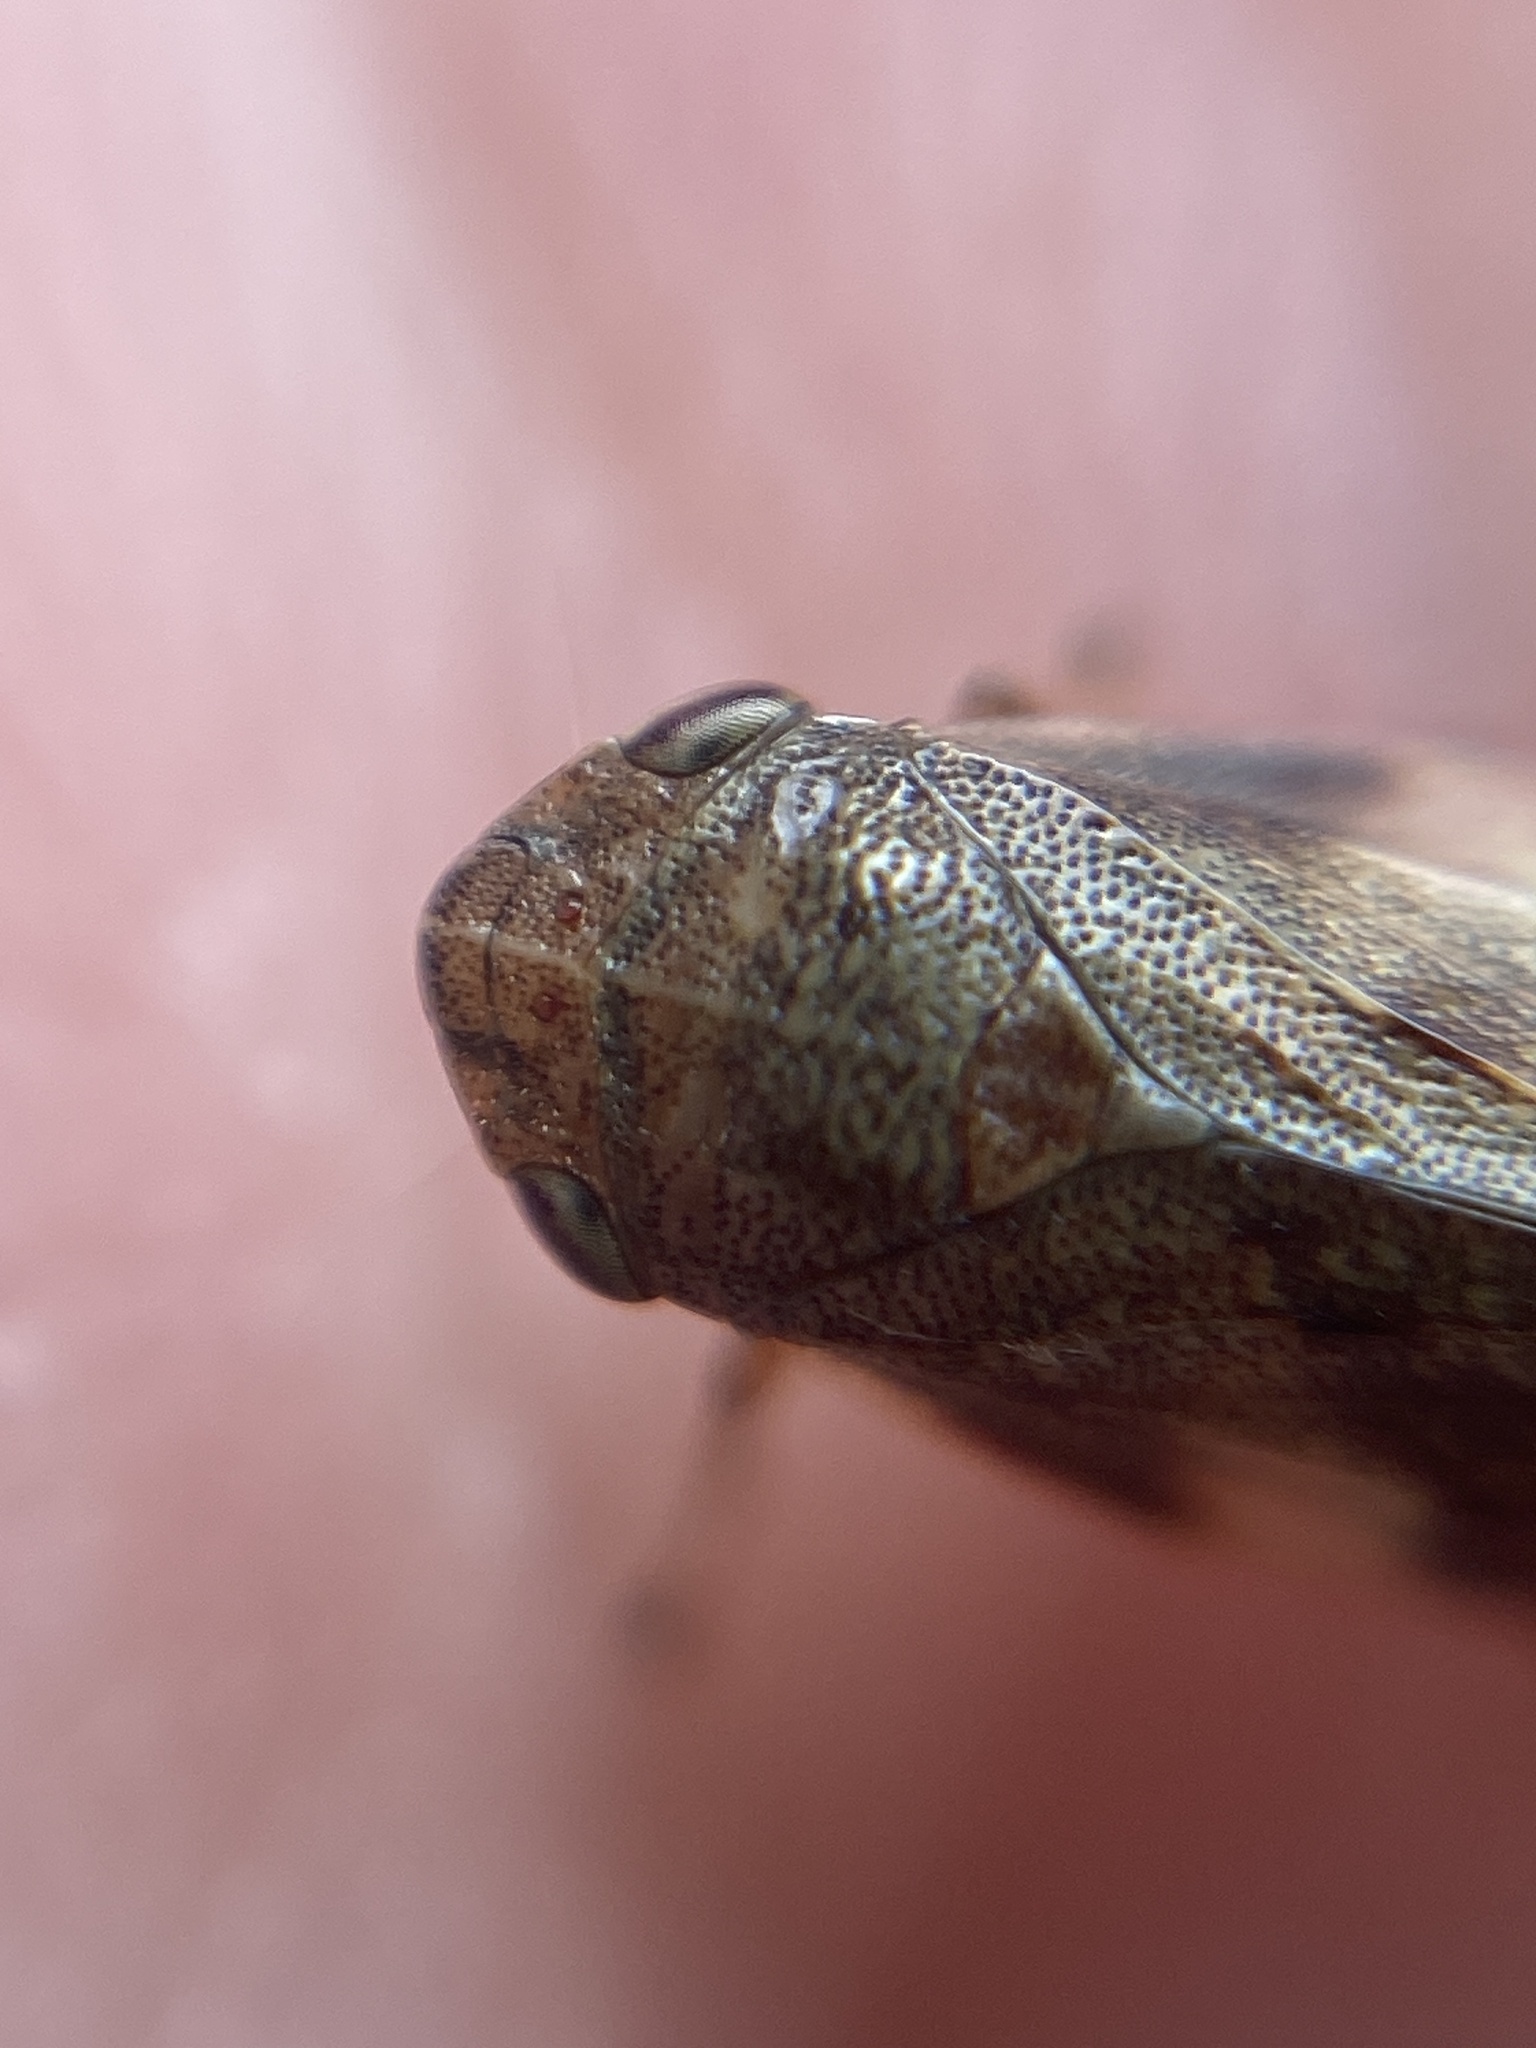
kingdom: Animalia
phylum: Arthropoda
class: Insecta
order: Hemiptera
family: Aphrophoridae
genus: Aphrophora
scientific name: Aphrophora alni
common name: European alder spittlebug
